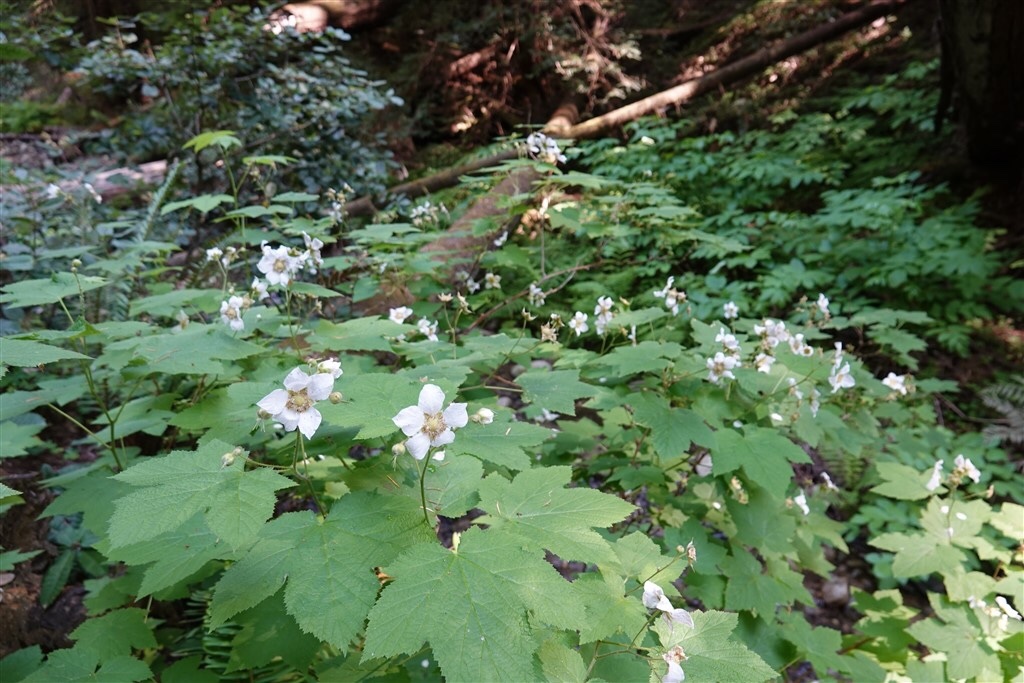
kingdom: Plantae
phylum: Tracheophyta
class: Magnoliopsida
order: Rosales
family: Rosaceae
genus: Rubus
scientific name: Rubus parviflorus
